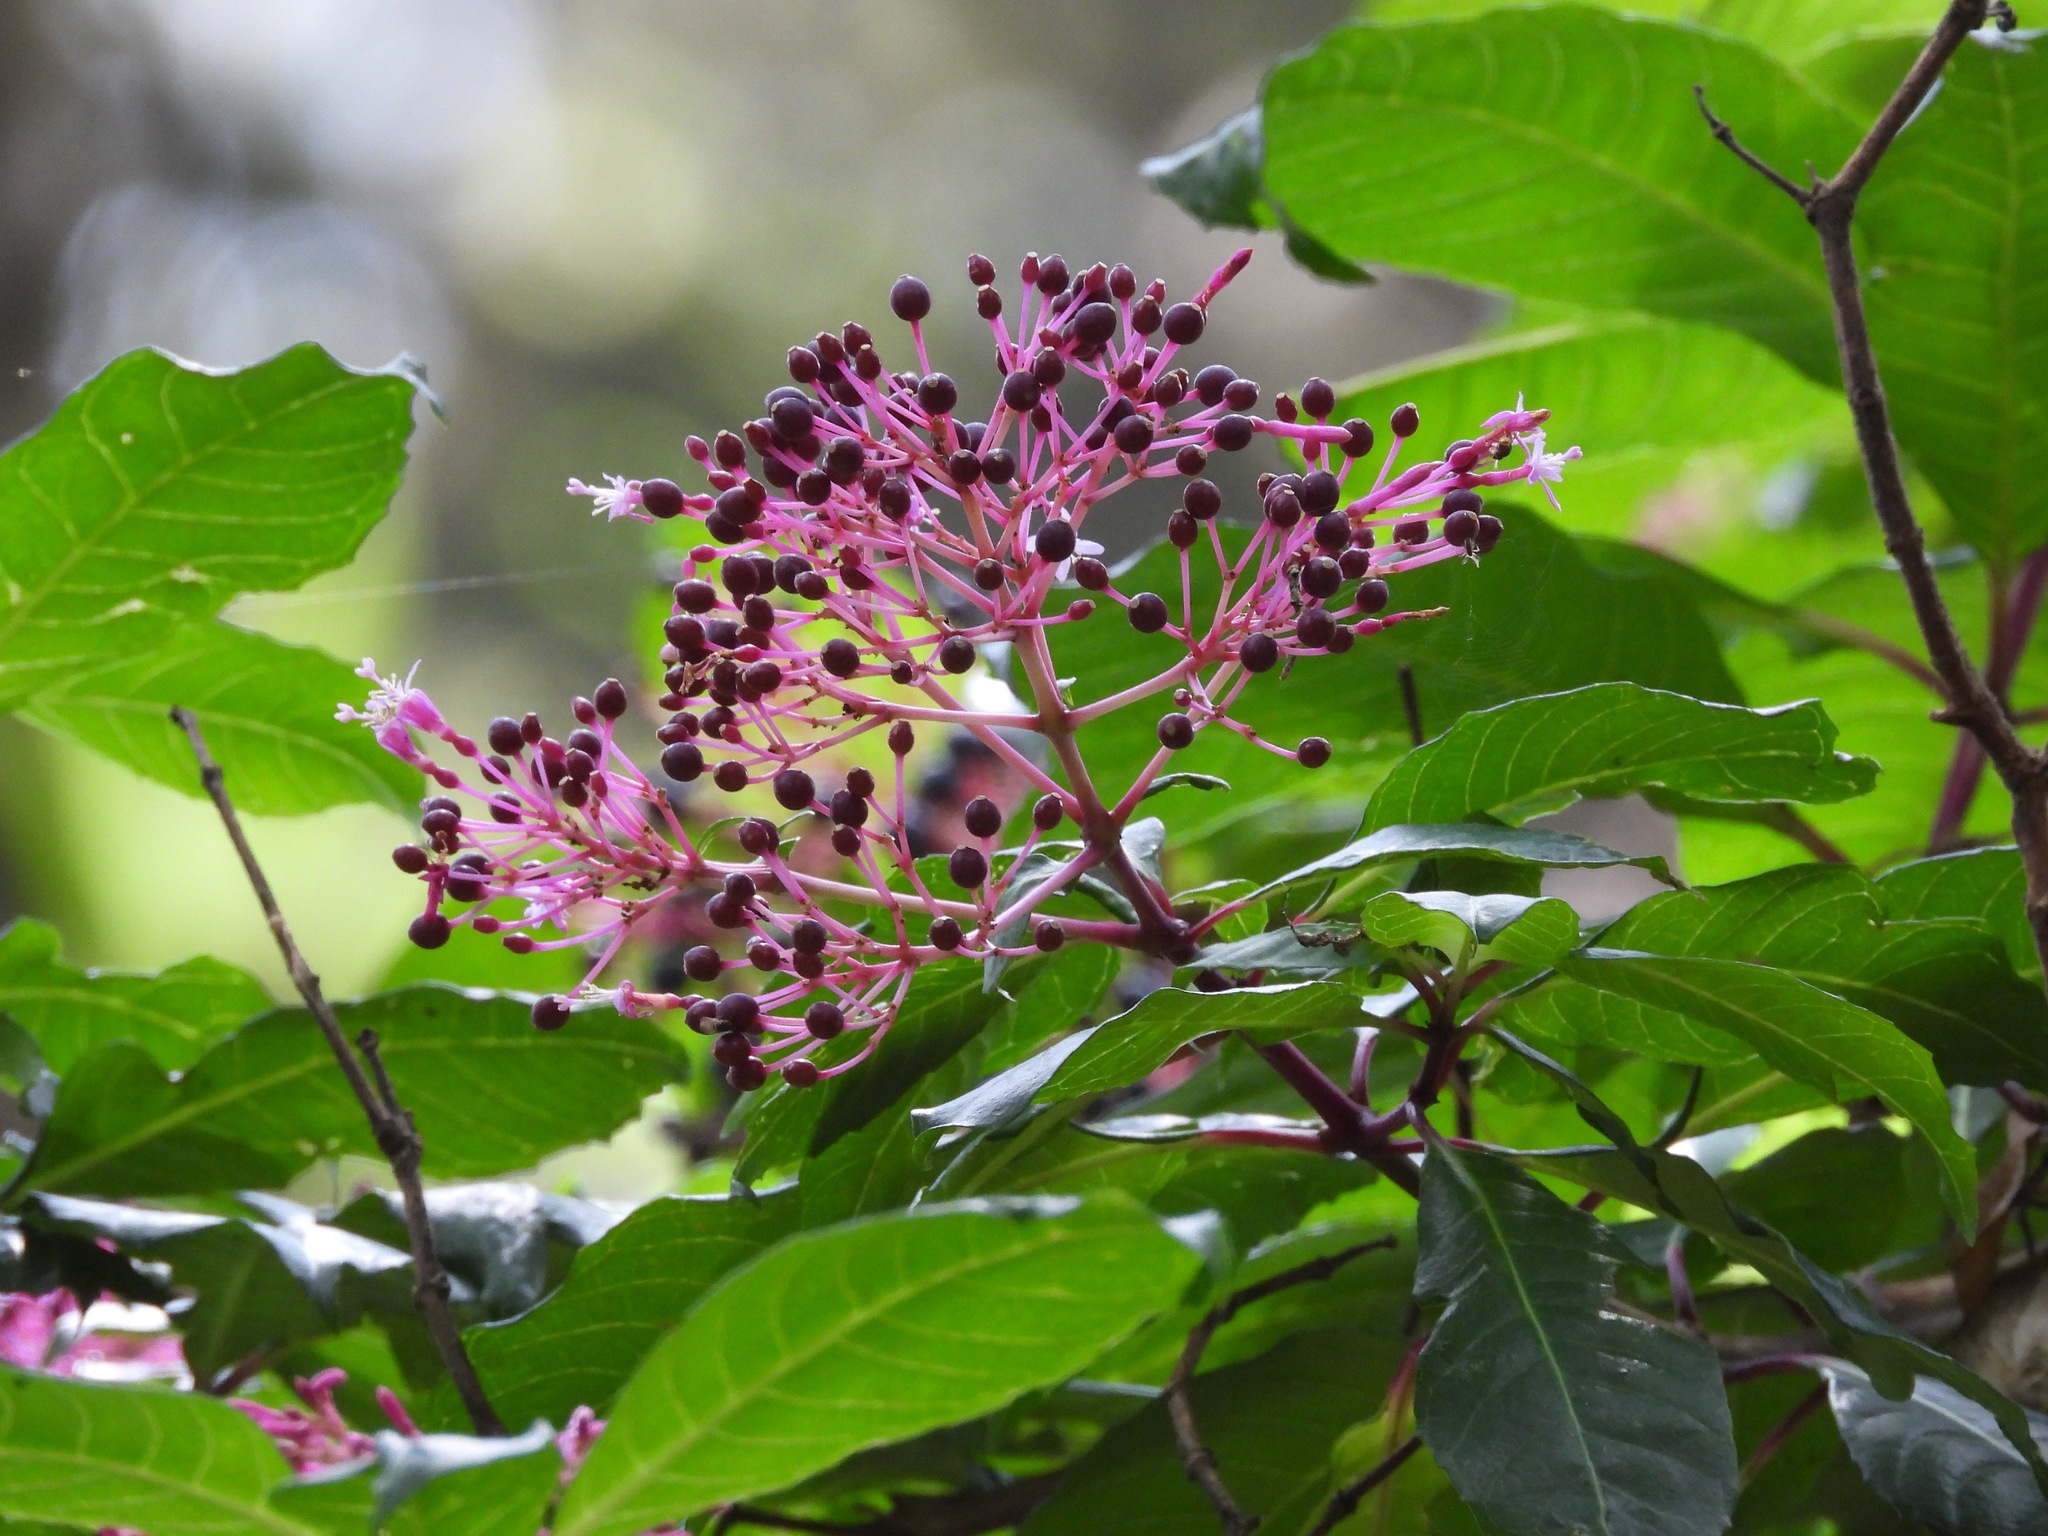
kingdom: Plantae
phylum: Tracheophyta
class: Magnoliopsida
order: Myrtales
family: Onagraceae
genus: Fuchsia
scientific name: Fuchsia paniculata
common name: Shrubby fuchsia
